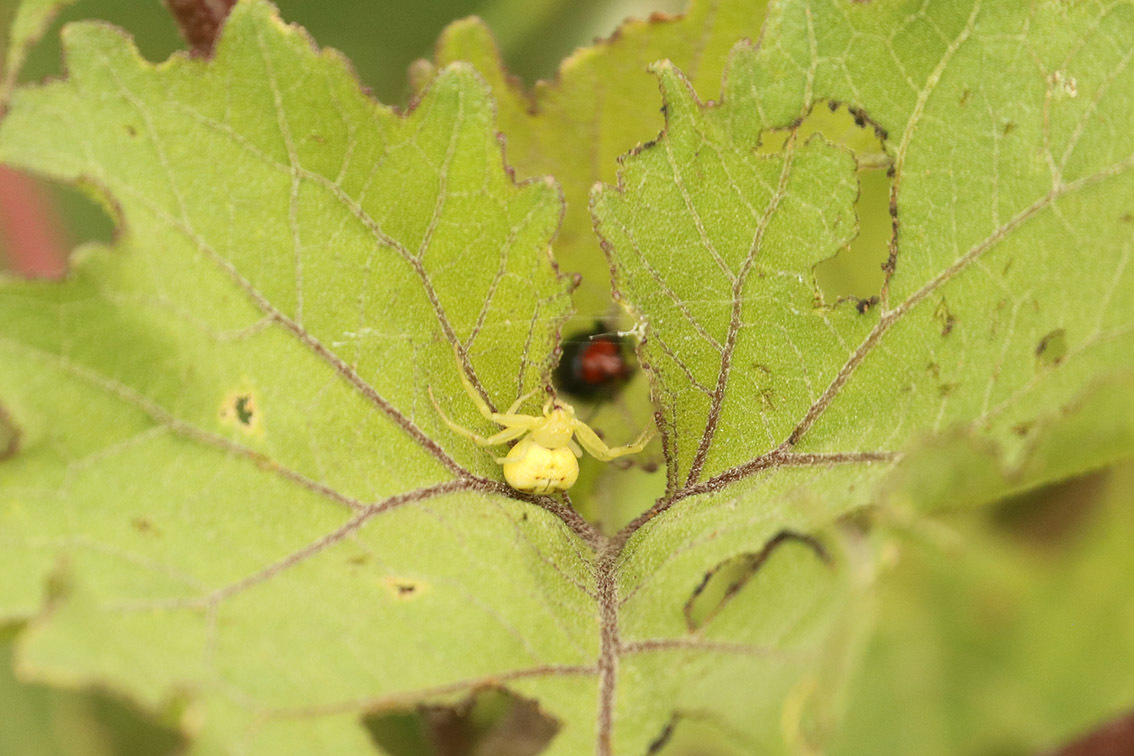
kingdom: Animalia
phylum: Arthropoda
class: Arachnida
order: Araneae
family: Thomisidae
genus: Misumenops
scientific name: Misumenops
